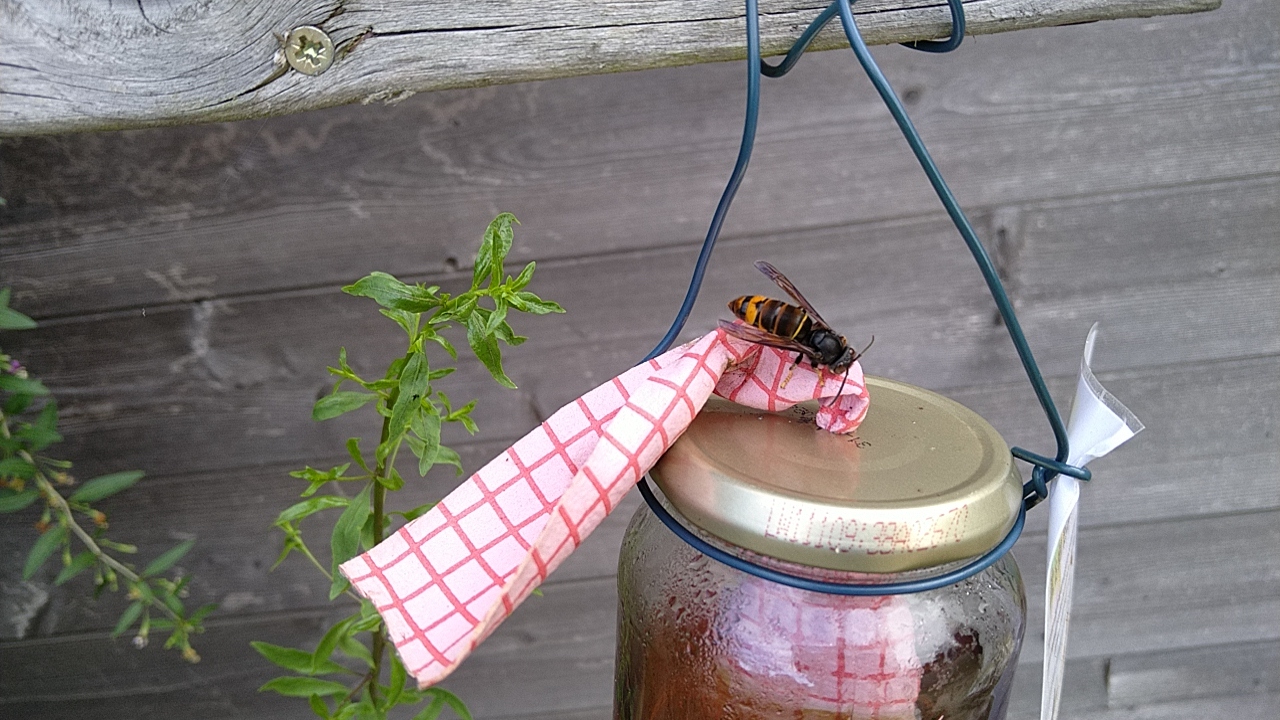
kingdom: Animalia
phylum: Arthropoda
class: Insecta
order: Hymenoptera
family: Vespidae
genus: Vespa
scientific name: Vespa velutina
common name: Asian hornet
